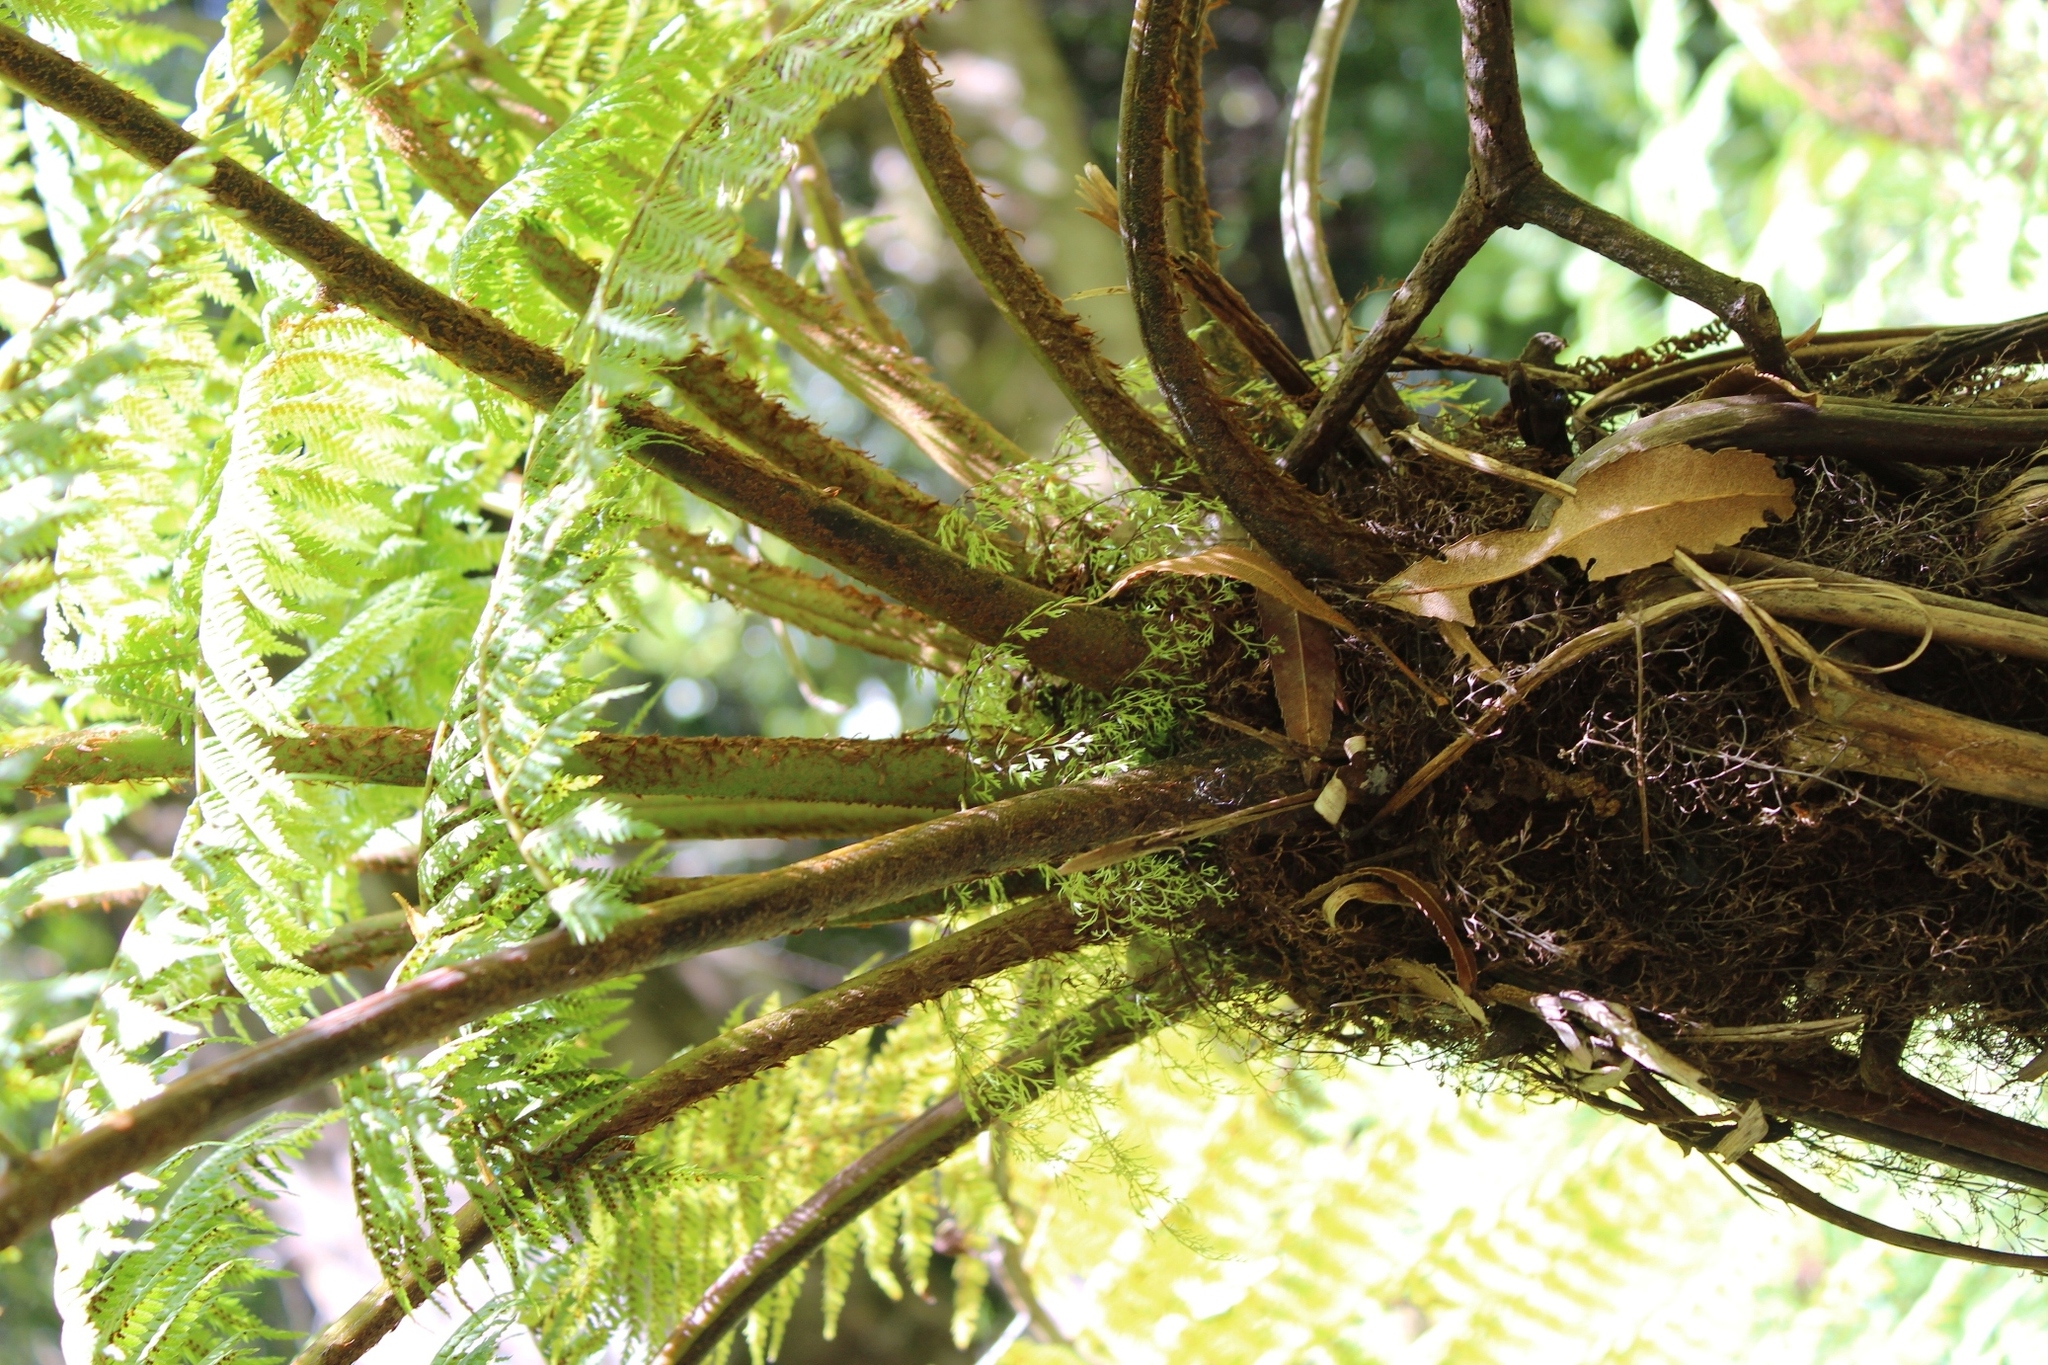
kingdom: Plantae
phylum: Tracheophyta
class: Polypodiopsida
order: Cyatheales
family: Cyatheaceae
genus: Gymnosphaera
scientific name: Gymnosphaera capensis
